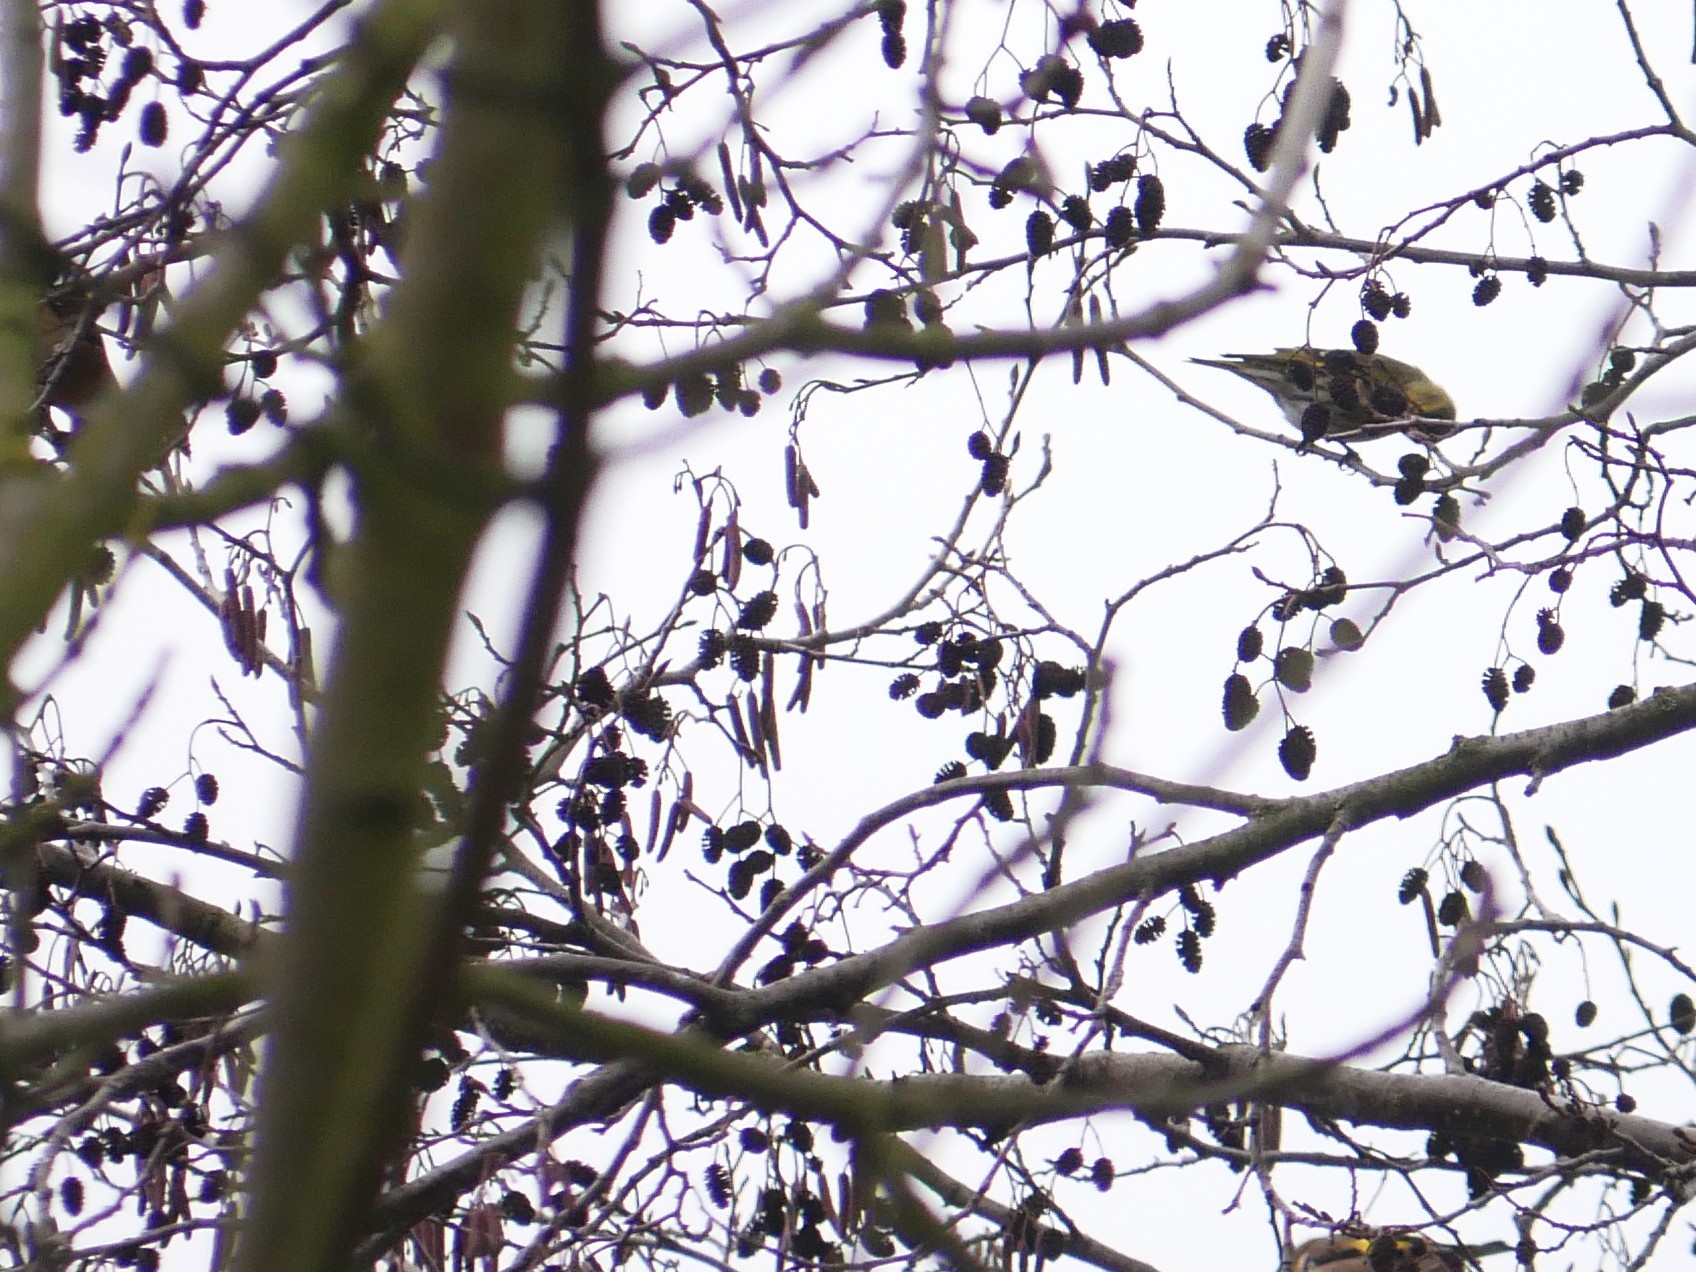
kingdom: Plantae
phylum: Tracheophyta
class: Magnoliopsida
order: Fagales
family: Betulaceae
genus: Alnus
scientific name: Alnus glutinosa
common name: Black alder
